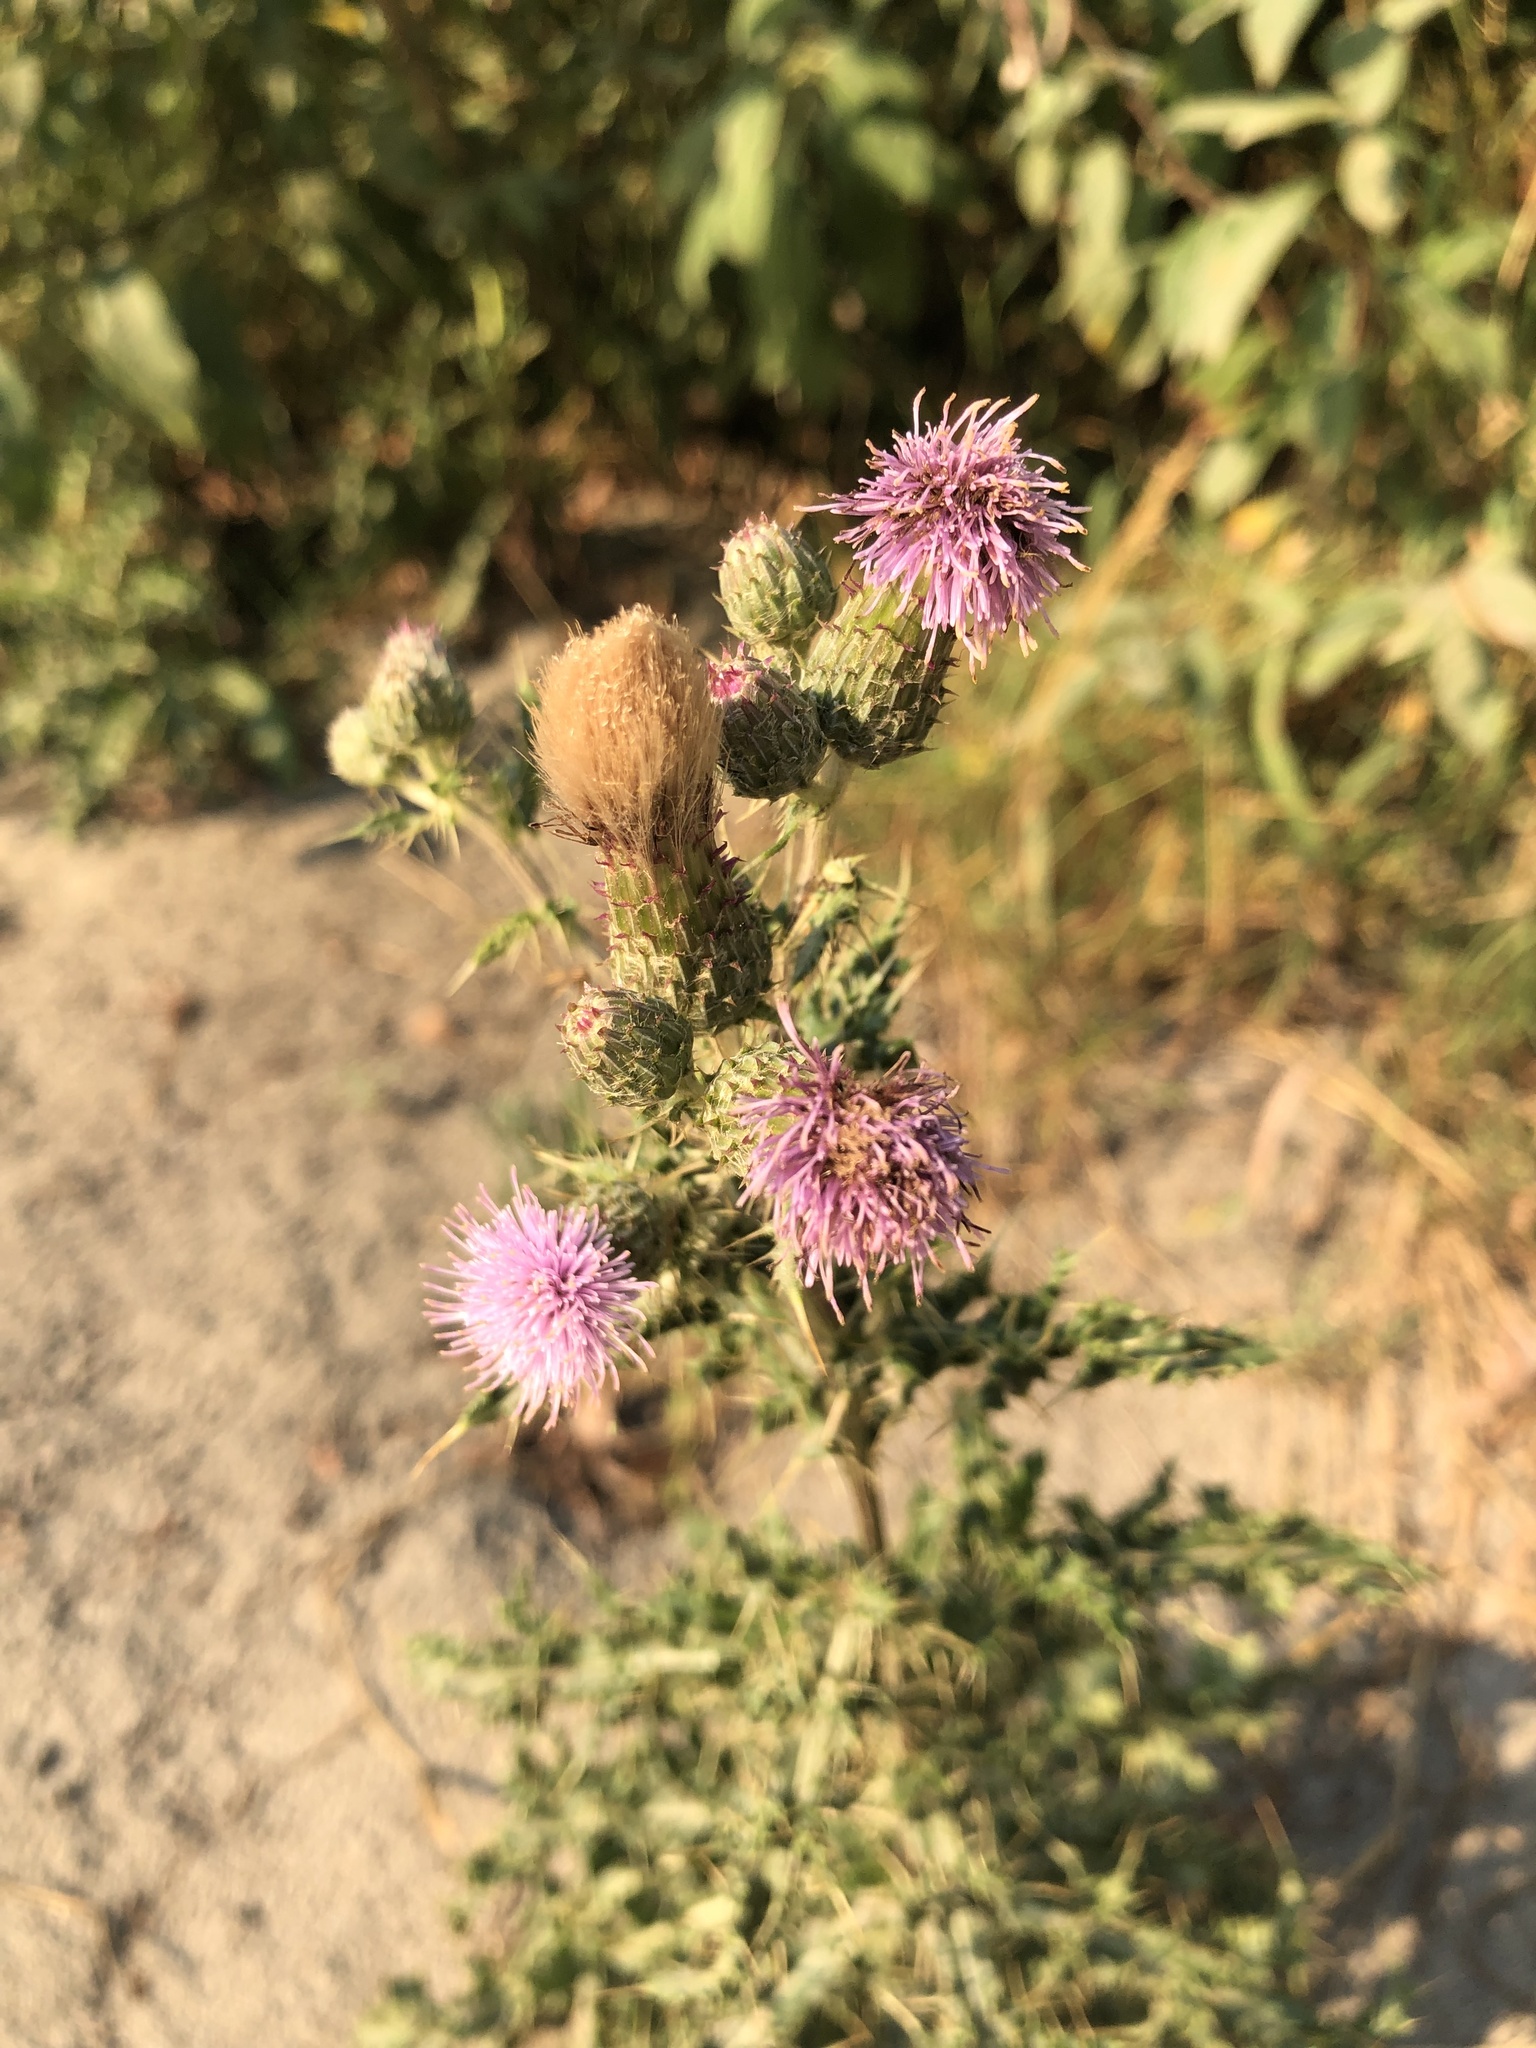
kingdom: Plantae
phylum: Tracheophyta
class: Magnoliopsida
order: Asterales
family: Asteraceae
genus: Cirsium
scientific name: Cirsium arvense
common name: Creeping thistle
